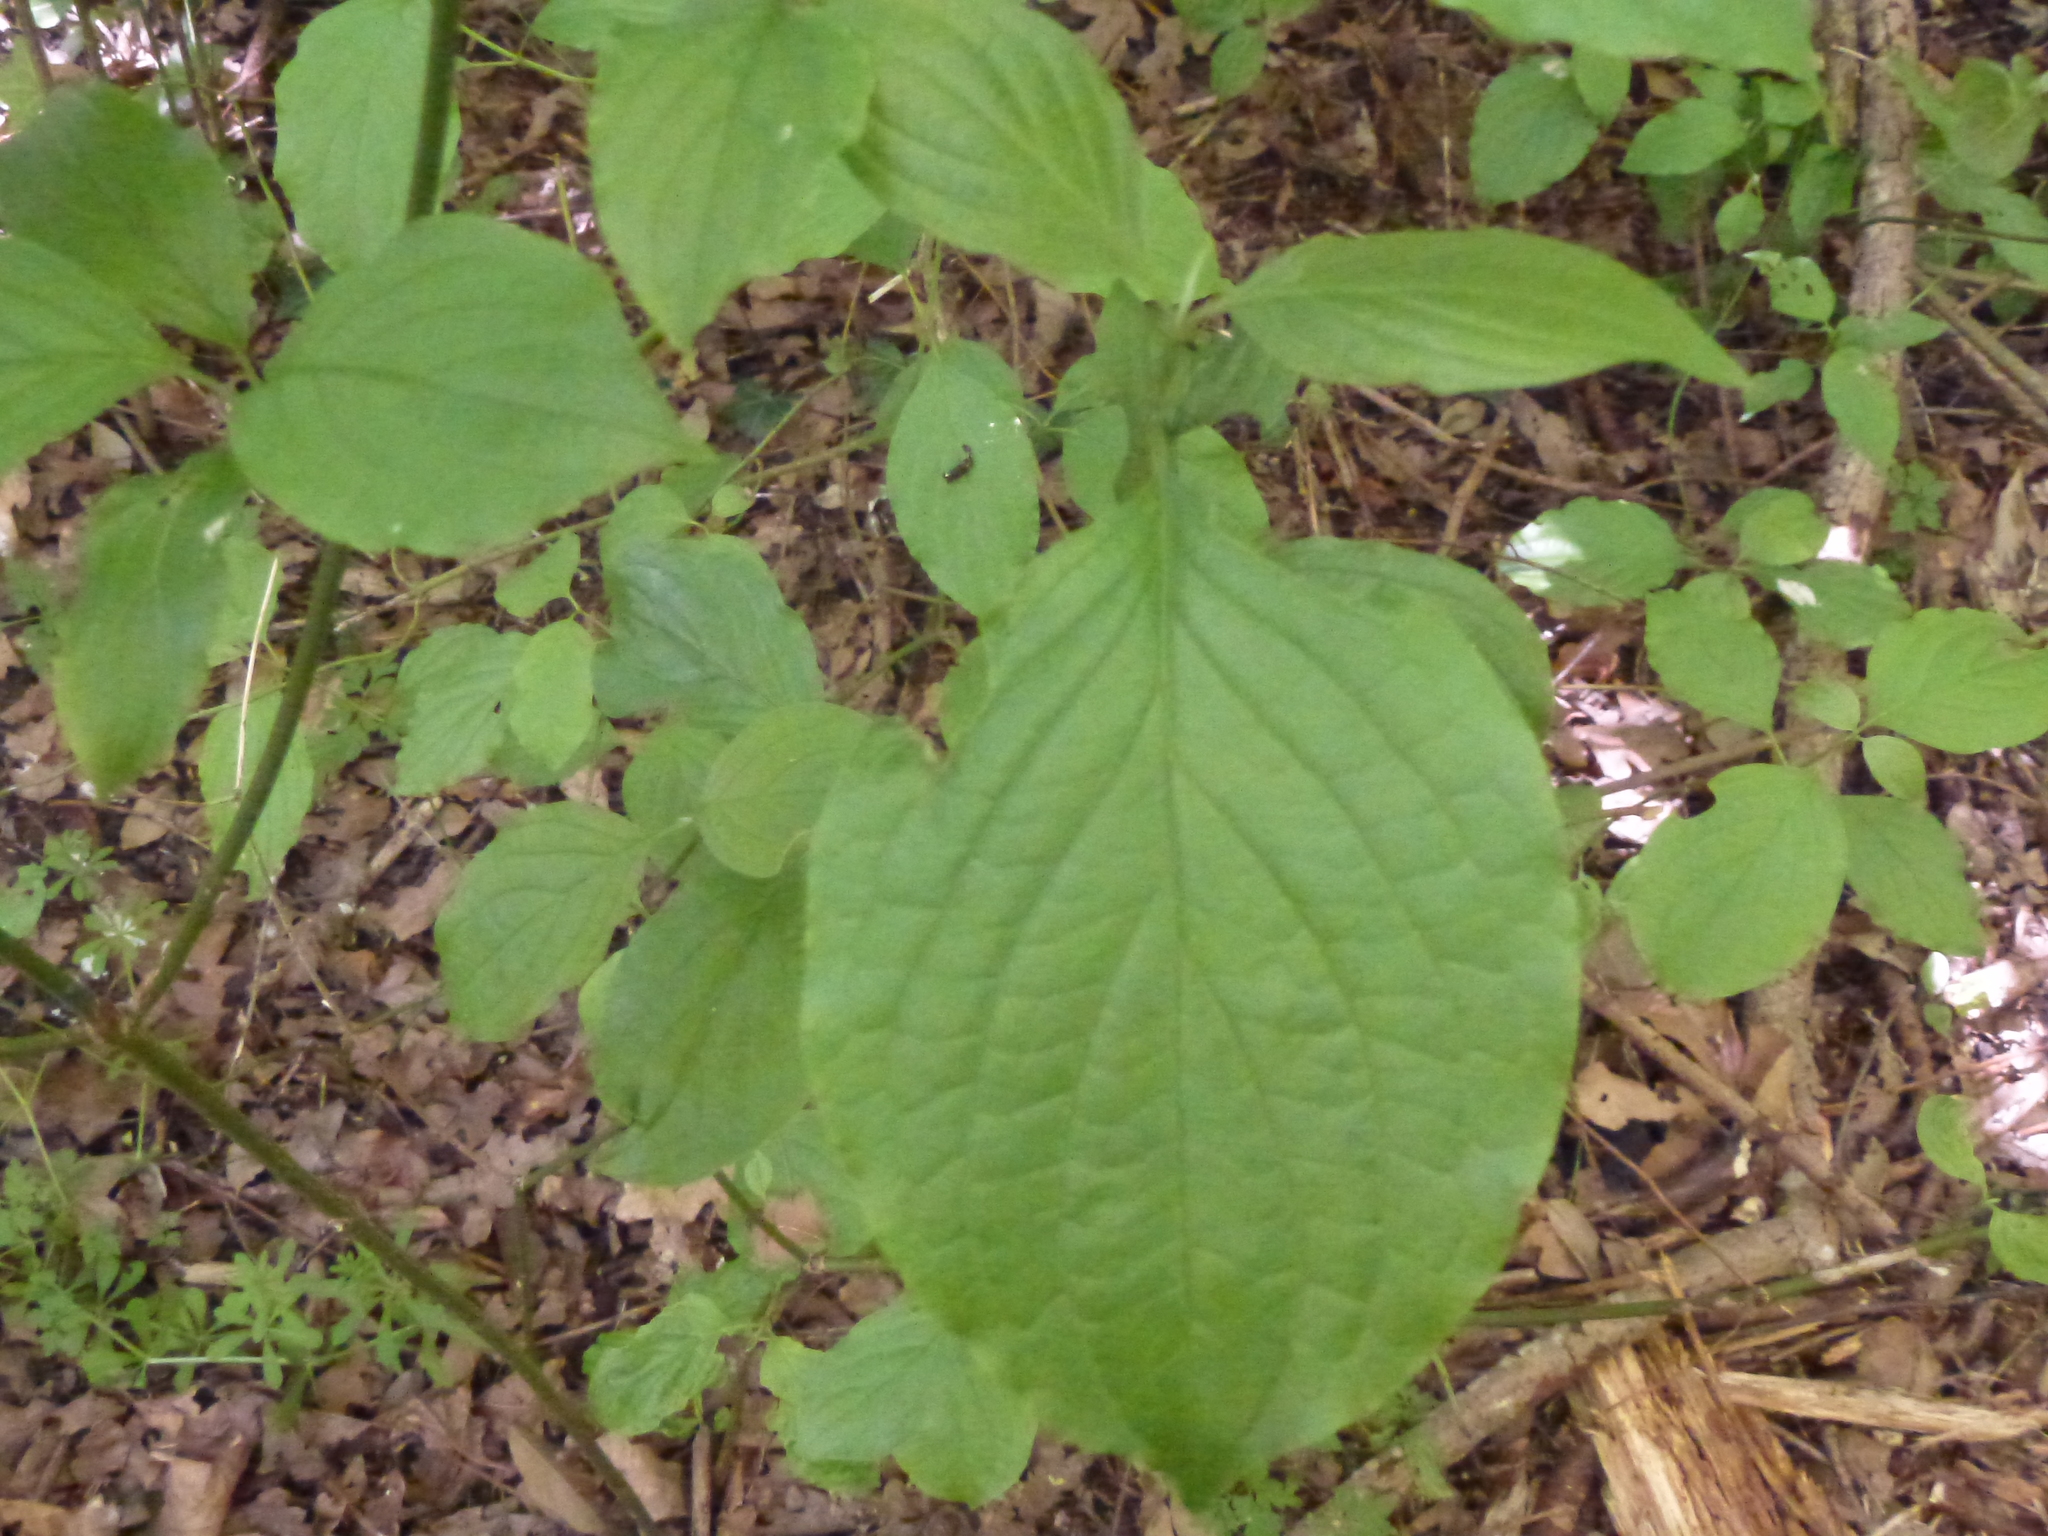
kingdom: Plantae
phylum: Tracheophyta
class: Magnoliopsida
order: Cornales
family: Cornaceae
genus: Cornus
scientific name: Cornus sanguinea
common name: Dogwood
